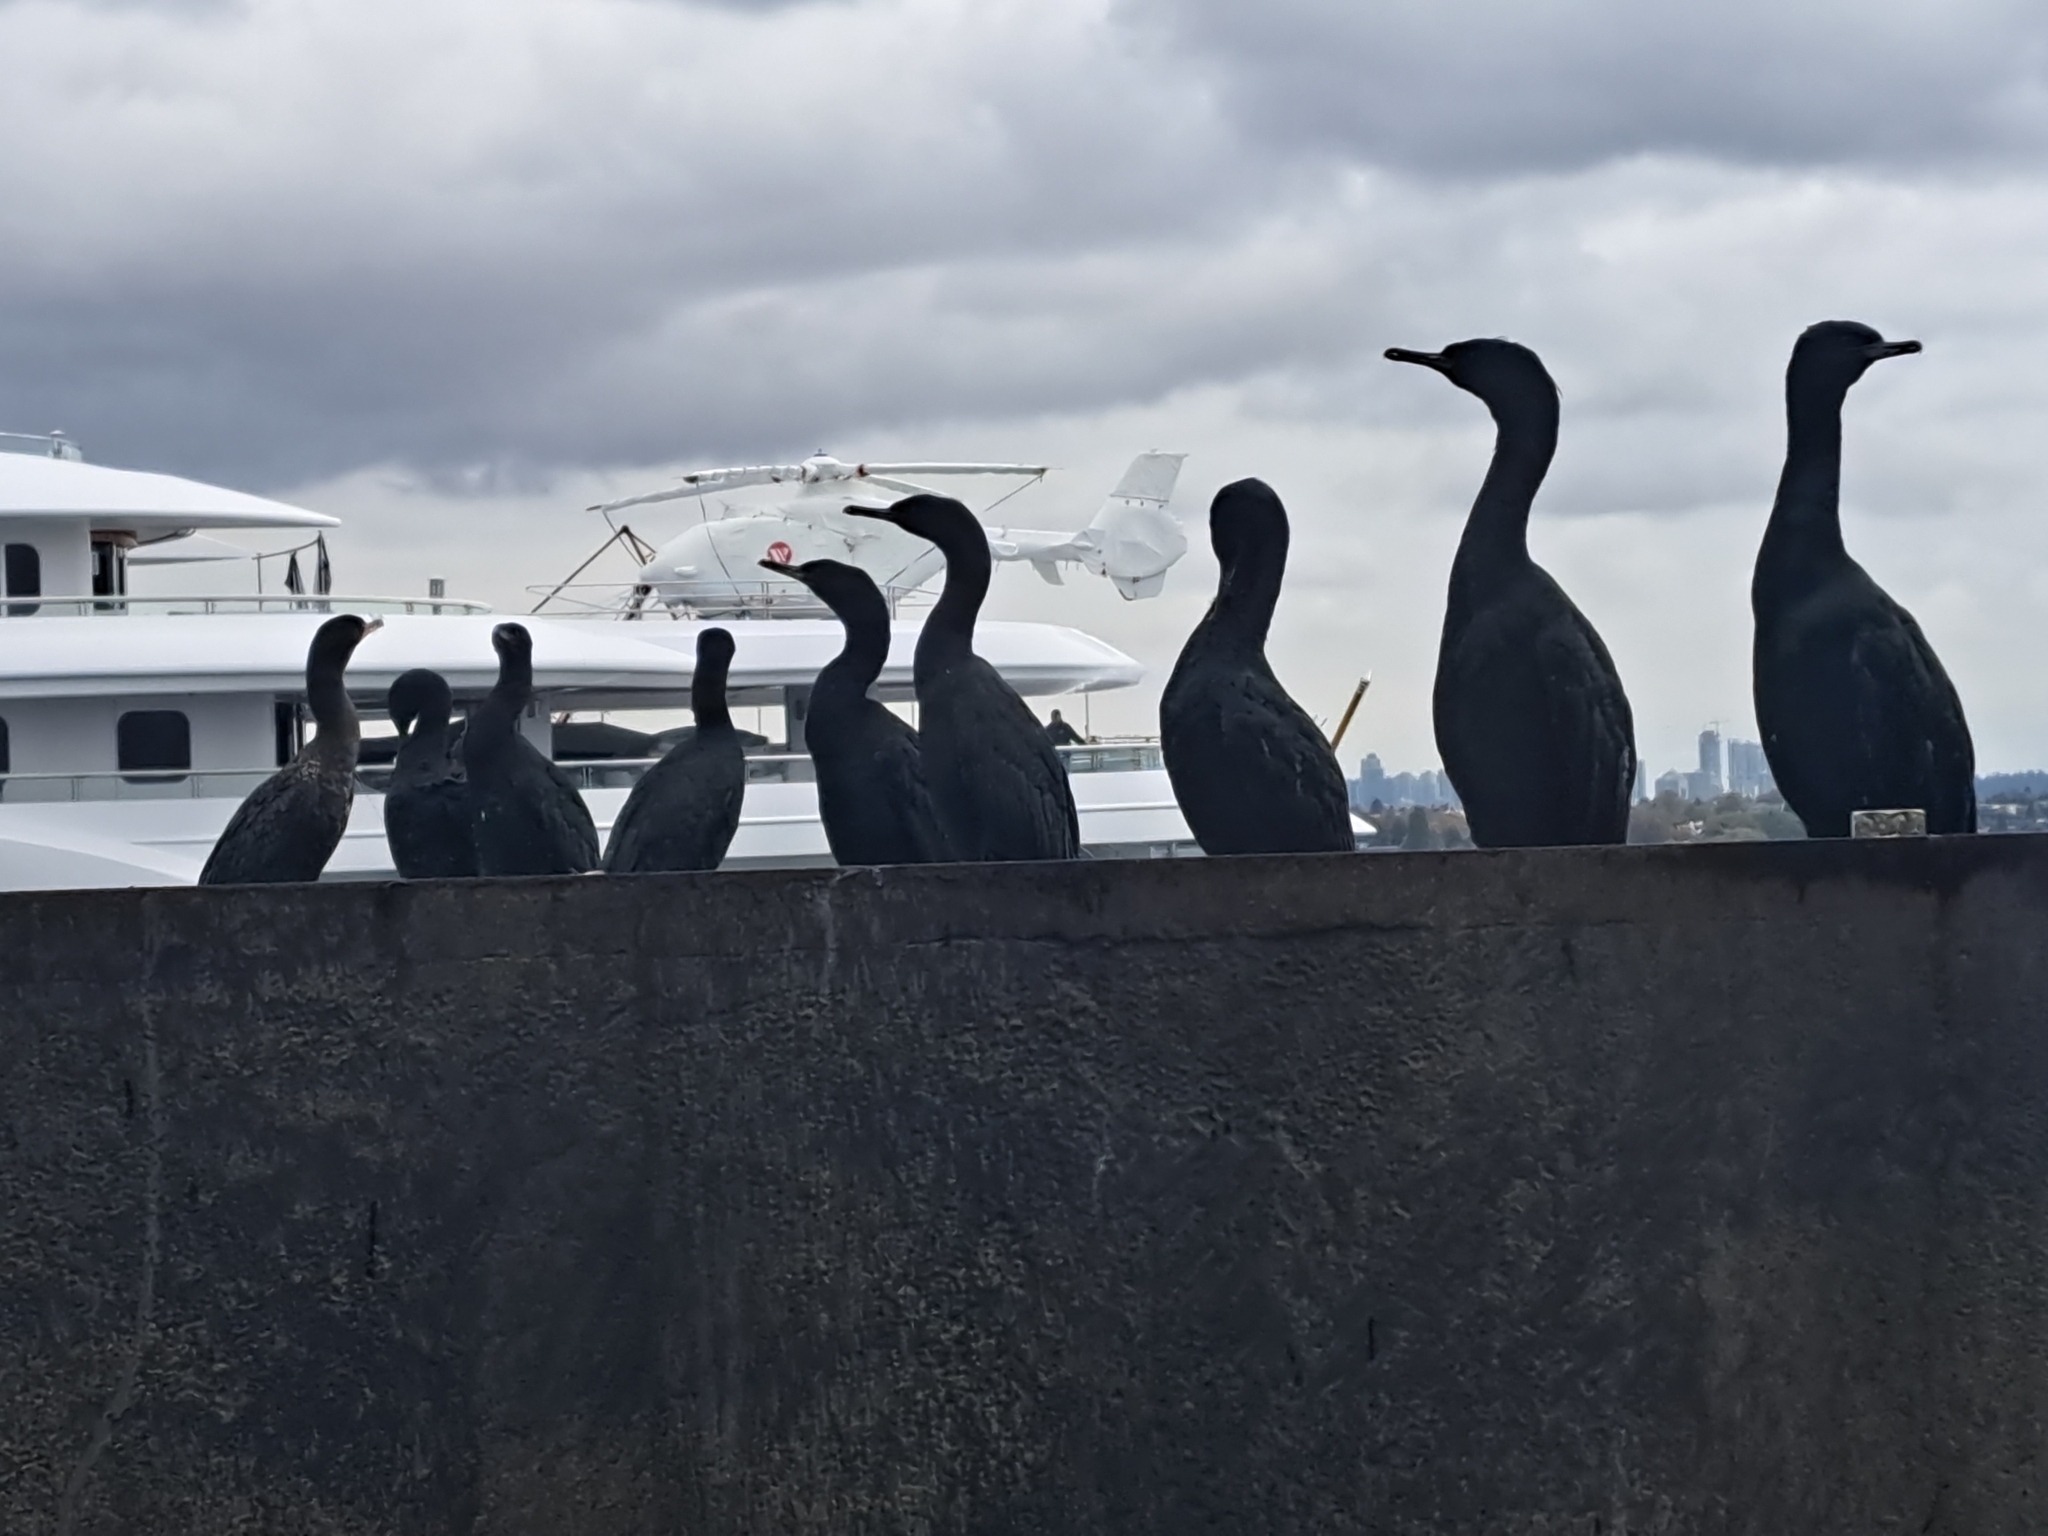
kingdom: Animalia
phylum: Chordata
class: Aves
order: Suliformes
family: Phalacrocoracidae
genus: Phalacrocorax
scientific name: Phalacrocorax pelagicus
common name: Pelagic cormorant
